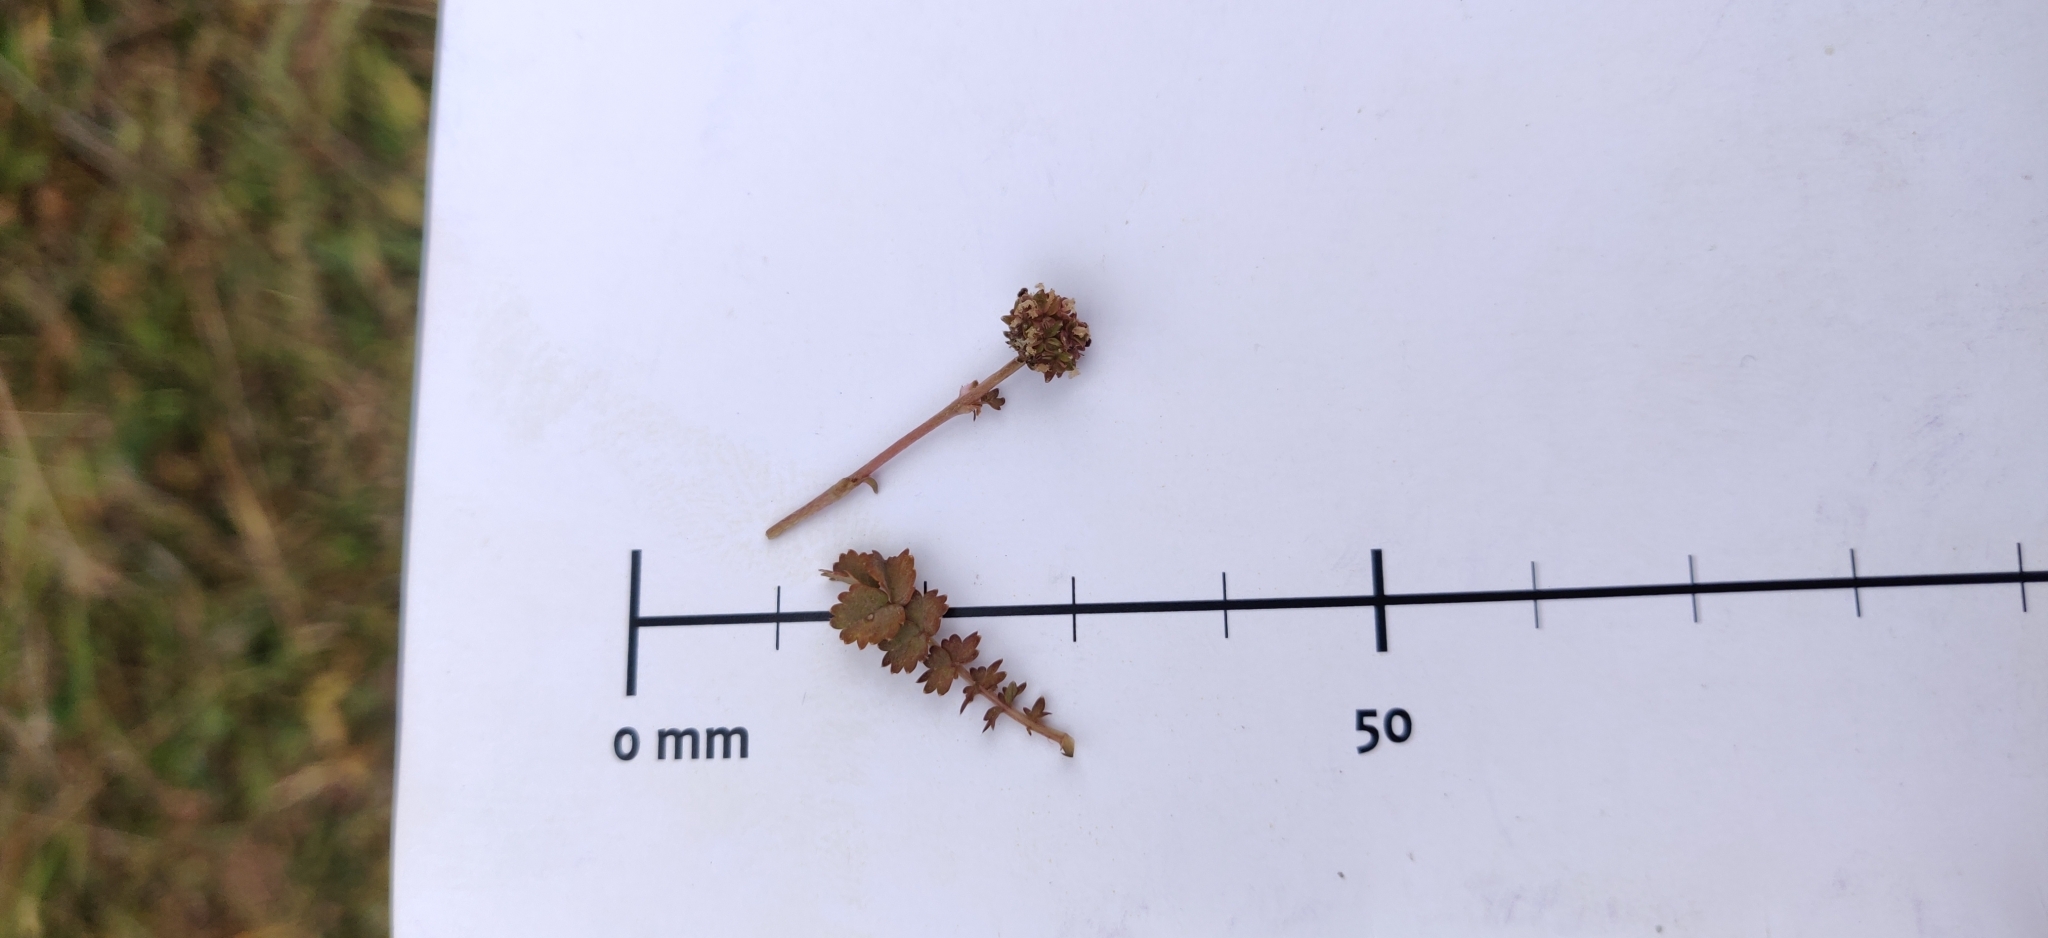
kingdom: Plantae
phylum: Tracheophyta
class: Magnoliopsida
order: Rosales
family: Rosaceae
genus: Acaena
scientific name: Acaena inermis
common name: Spineless acaena
